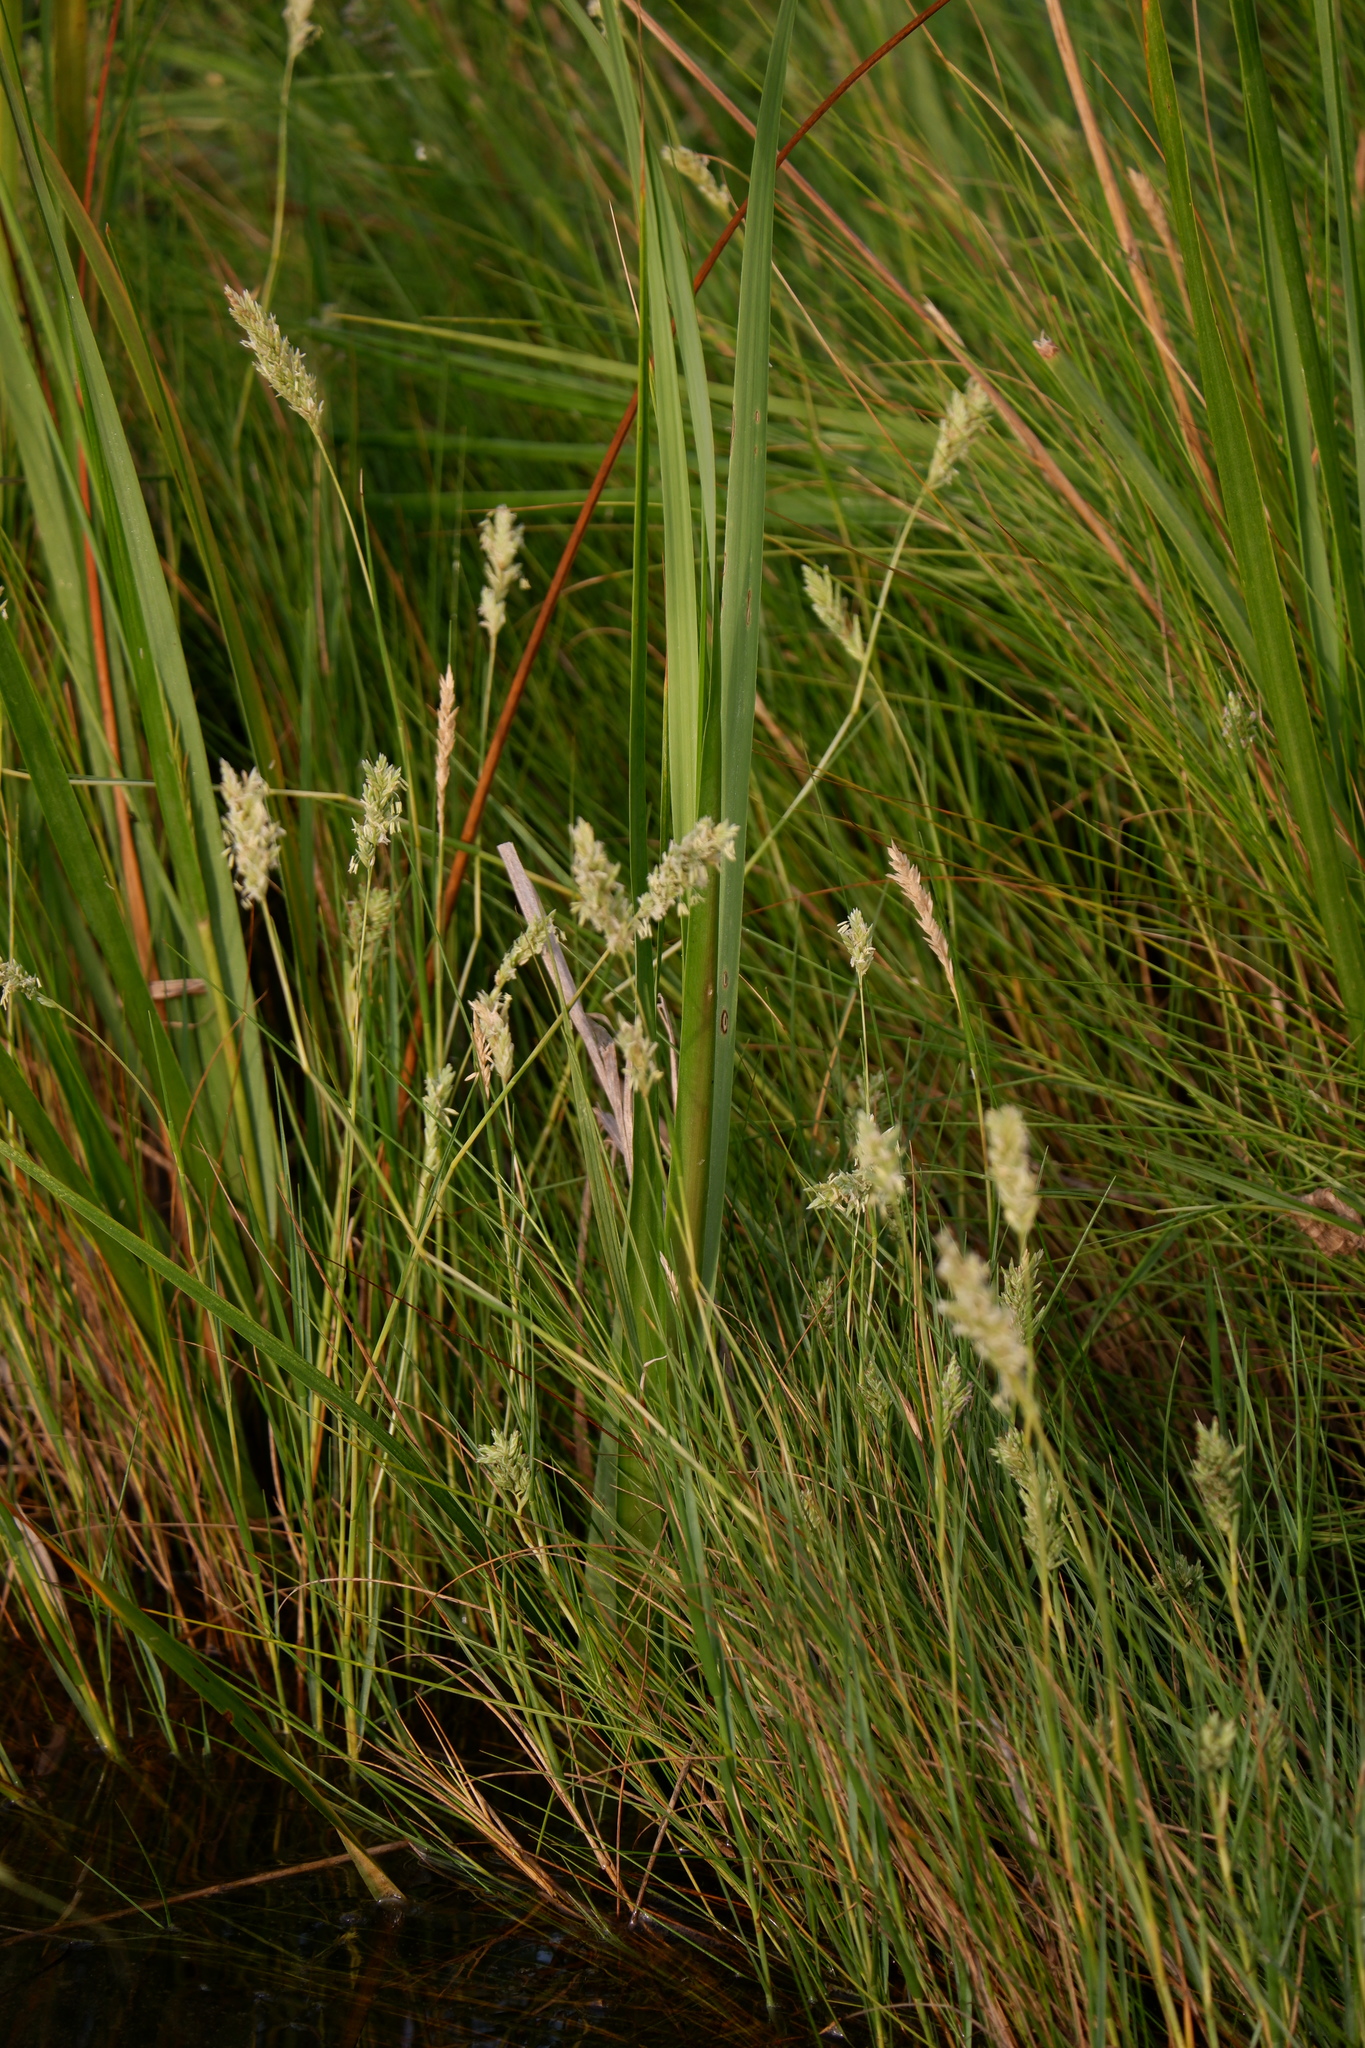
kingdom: Plantae
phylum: Tracheophyta
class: Liliopsida
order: Poales
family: Poaceae
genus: Distichlis
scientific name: Distichlis spicata
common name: Saltgrass
